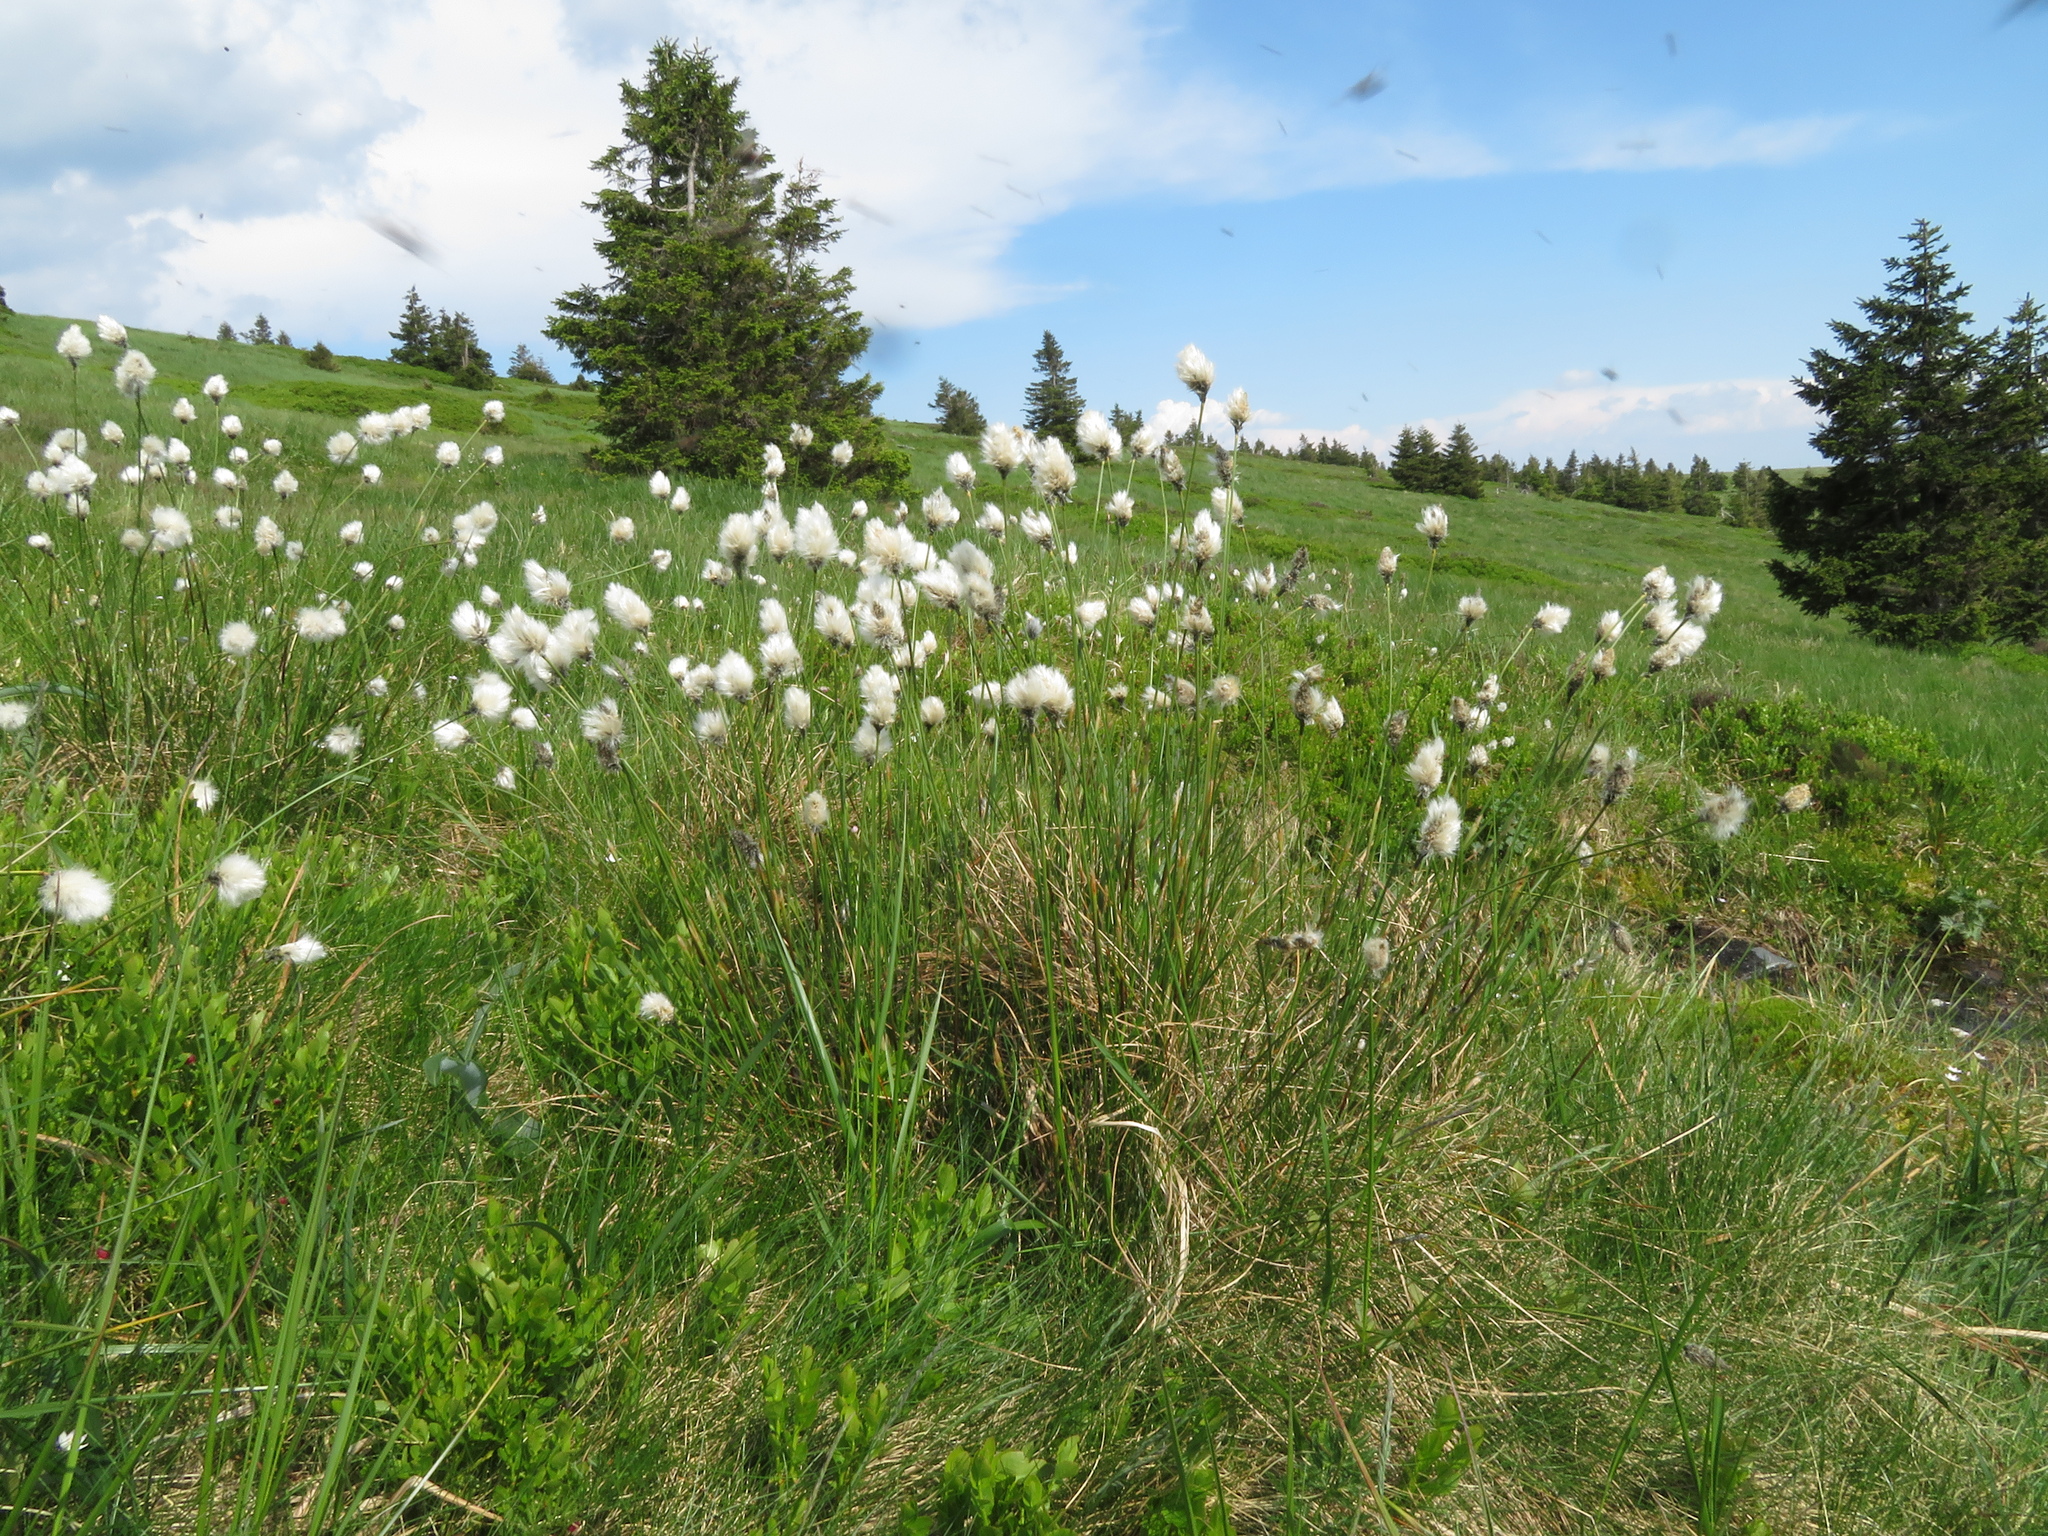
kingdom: Plantae
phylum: Tracheophyta
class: Liliopsida
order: Poales
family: Cyperaceae
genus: Eriophorum
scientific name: Eriophorum vaginatum
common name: Hare's-tail cottongrass
